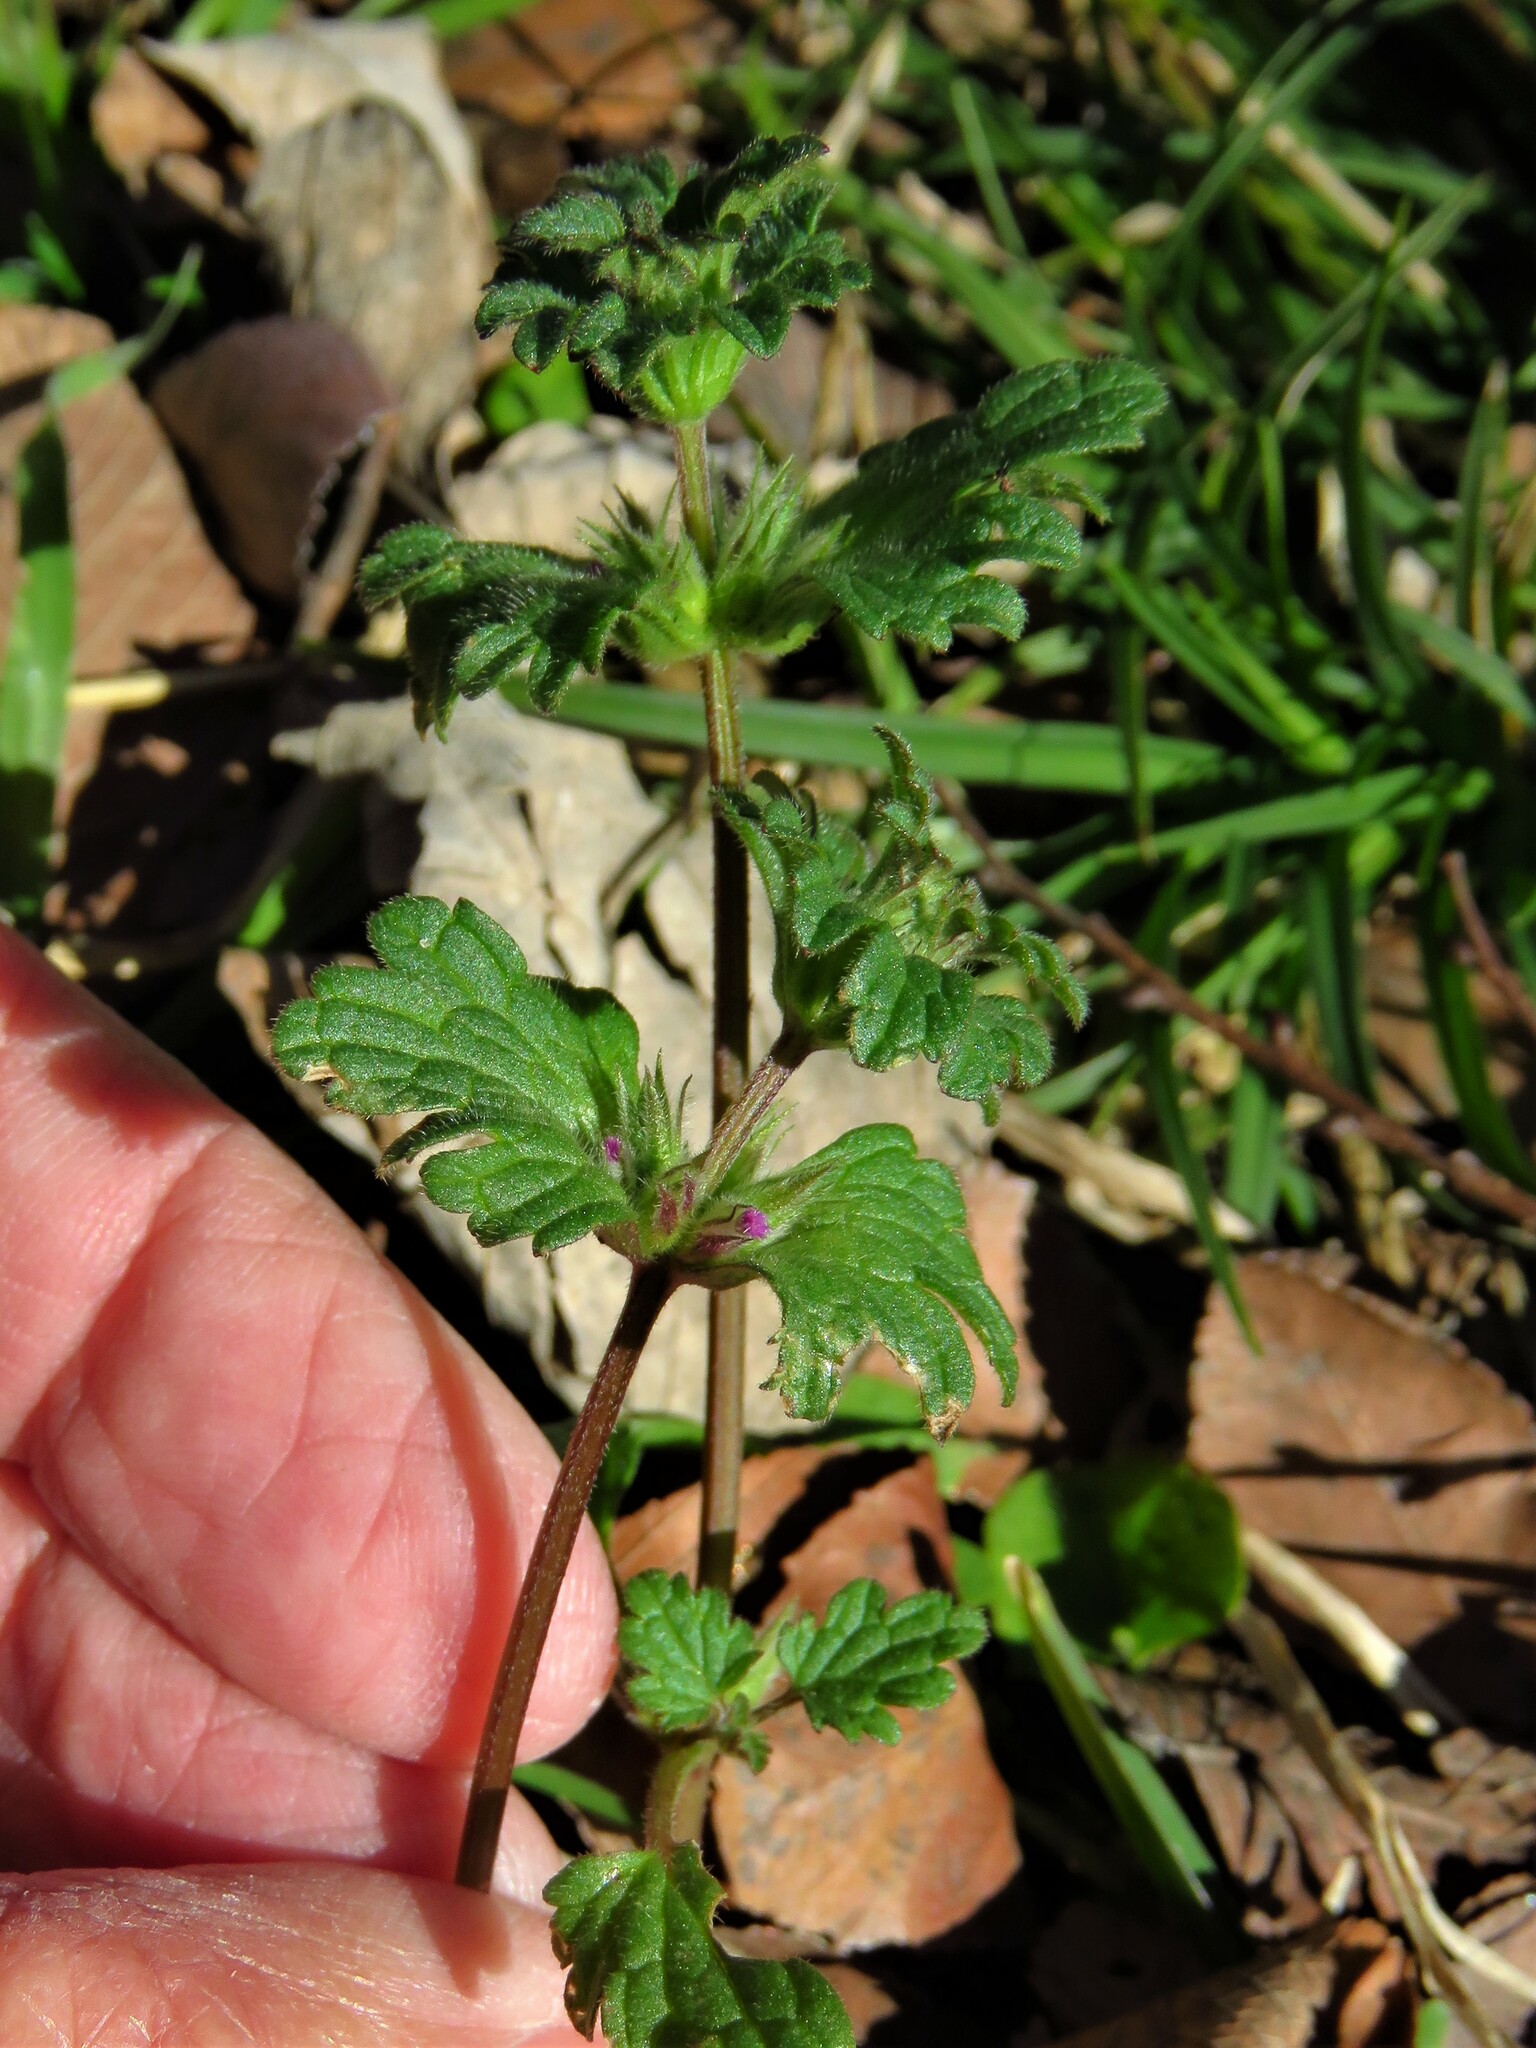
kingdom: Plantae
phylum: Tracheophyta
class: Magnoliopsida
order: Lamiales
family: Lamiaceae
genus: Lamium
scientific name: Lamium amplexicaule
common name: Henbit dead-nettle
